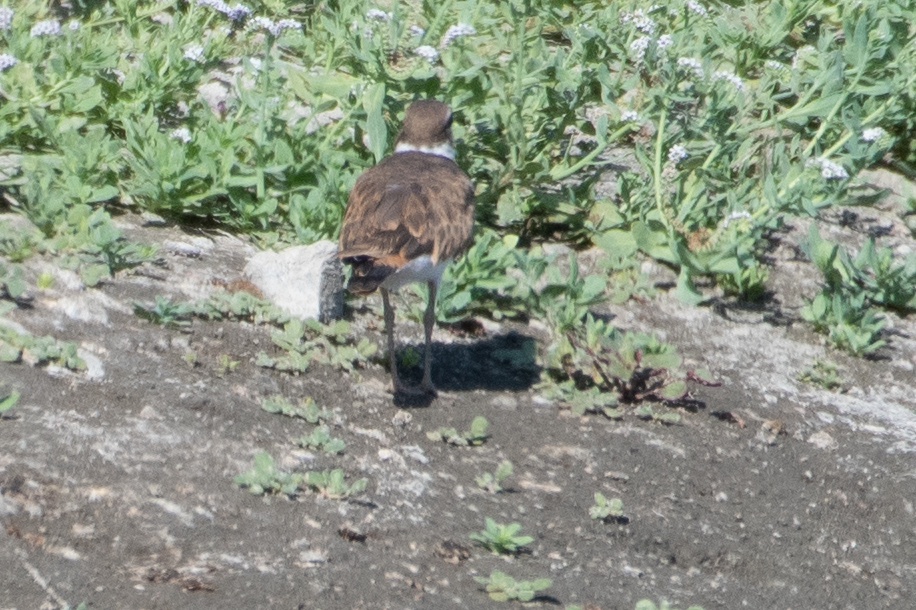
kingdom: Animalia
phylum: Chordata
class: Aves
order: Charadriiformes
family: Charadriidae
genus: Charadrius
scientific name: Charadrius vociferus
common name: Killdeer
